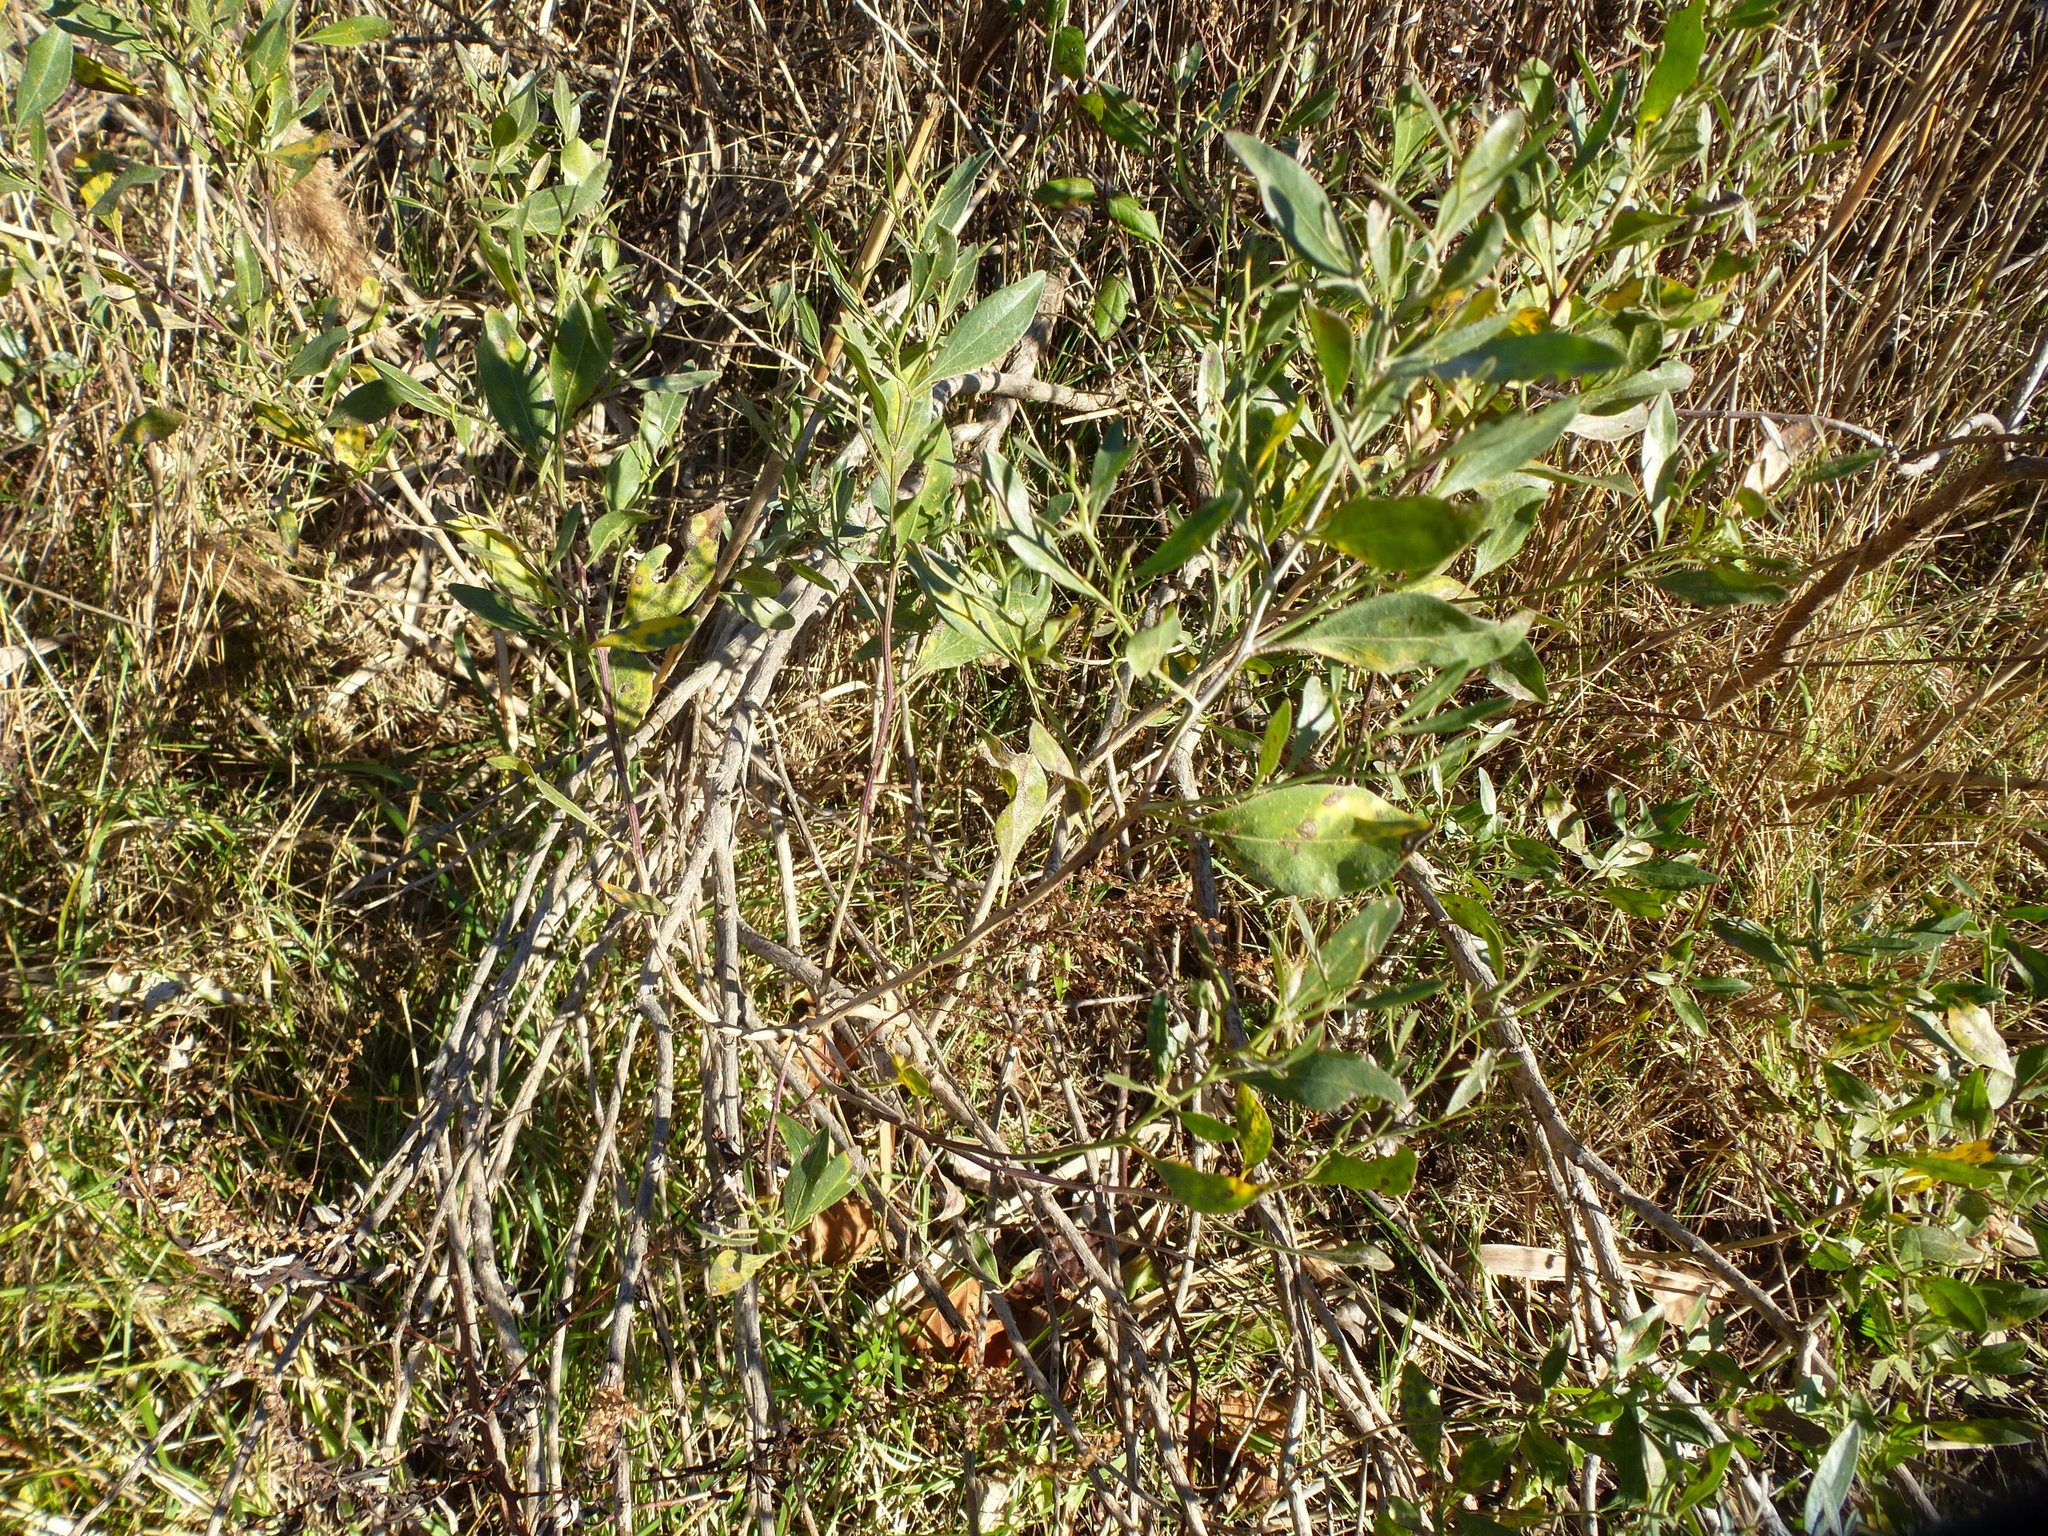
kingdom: Plantae
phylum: Tracheophyta
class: Magnoliopsida
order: Asterales
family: Asteraceae
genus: Baccharis
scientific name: Baccharis halimifolia
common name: Eastern baccharis
